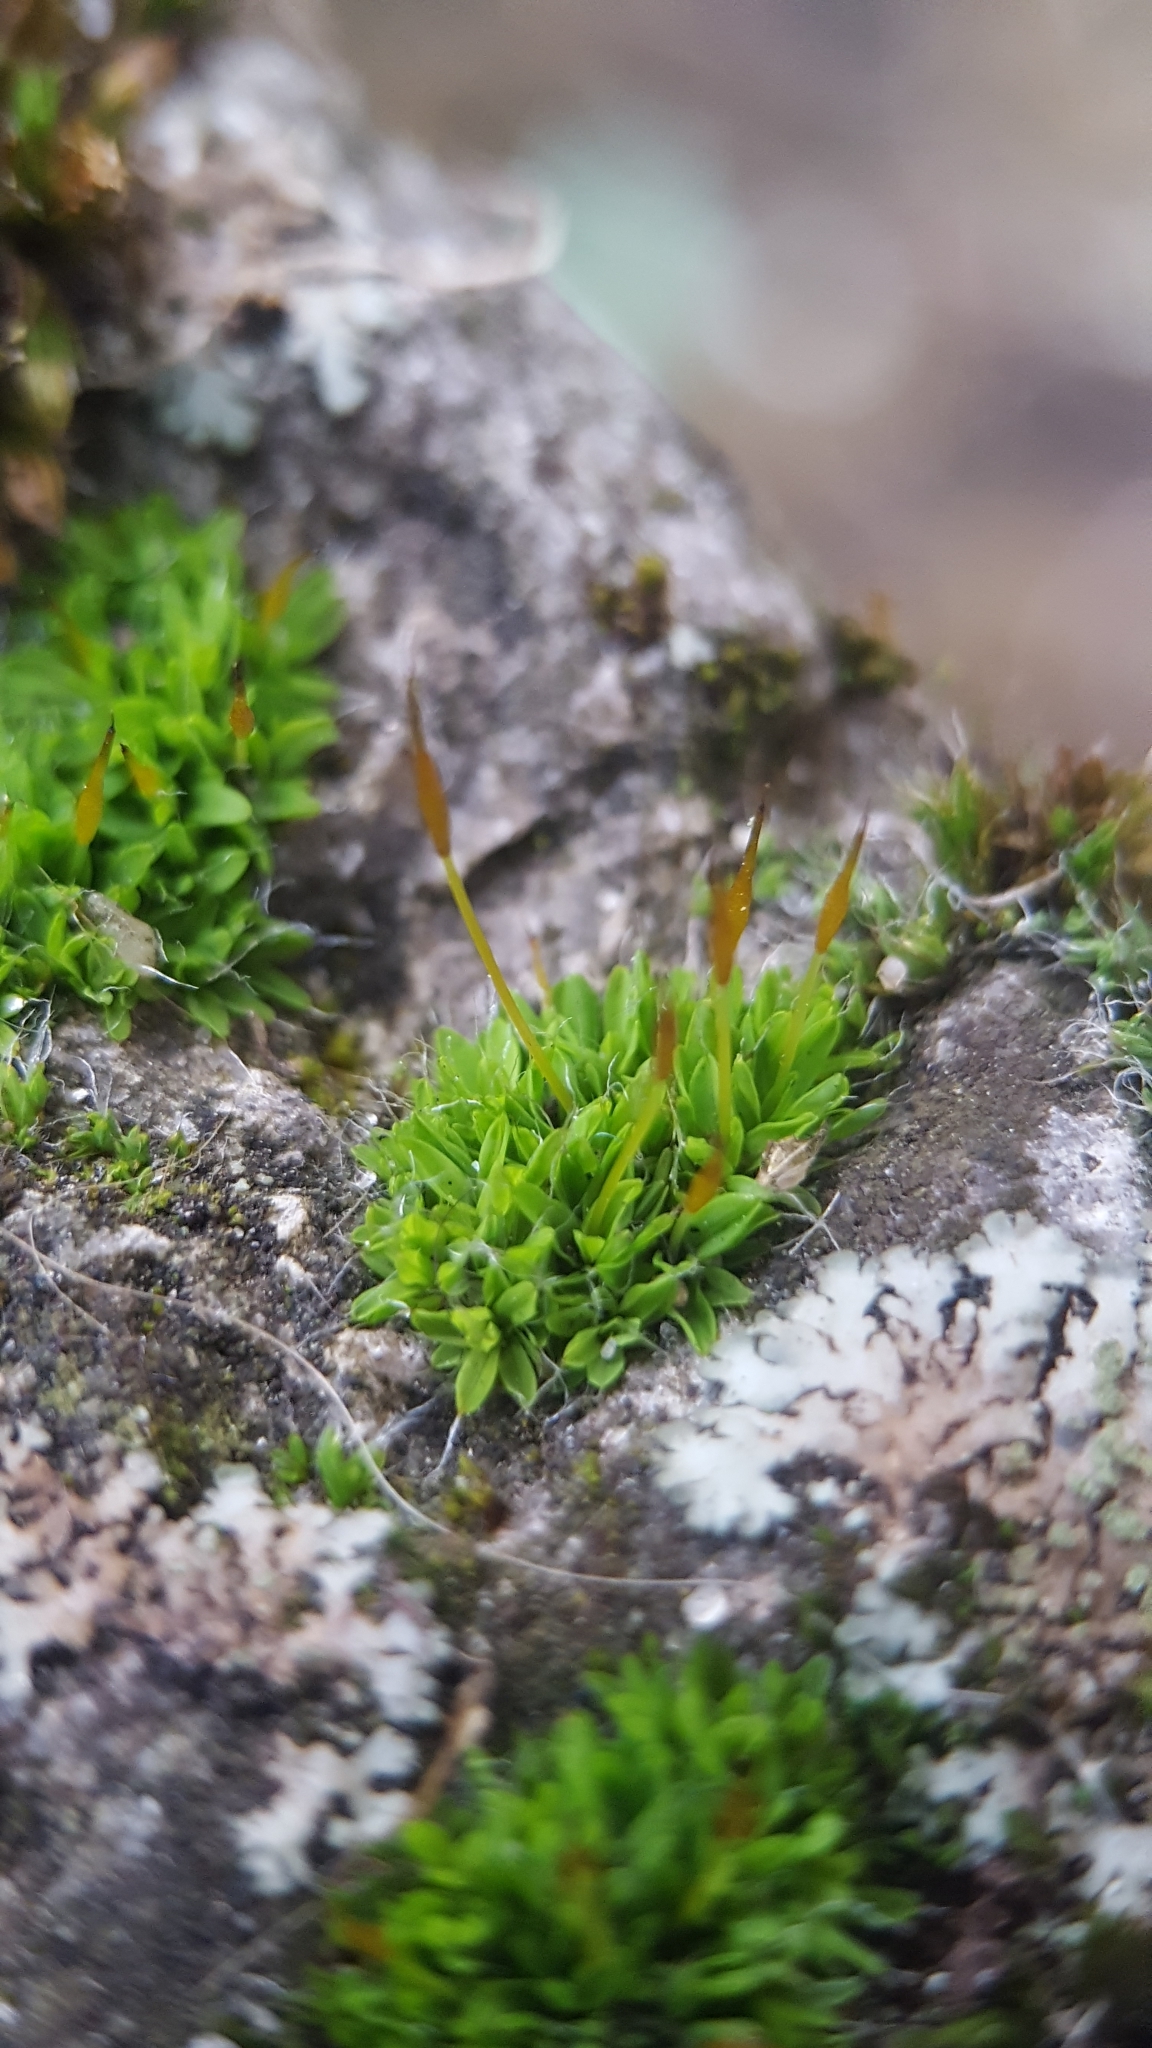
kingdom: Plantae
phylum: Bryophyta
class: Bryopsida
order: Pottiales
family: Pottiaceae
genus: Tortula
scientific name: Tortula muralis
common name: Wall screw-moss
